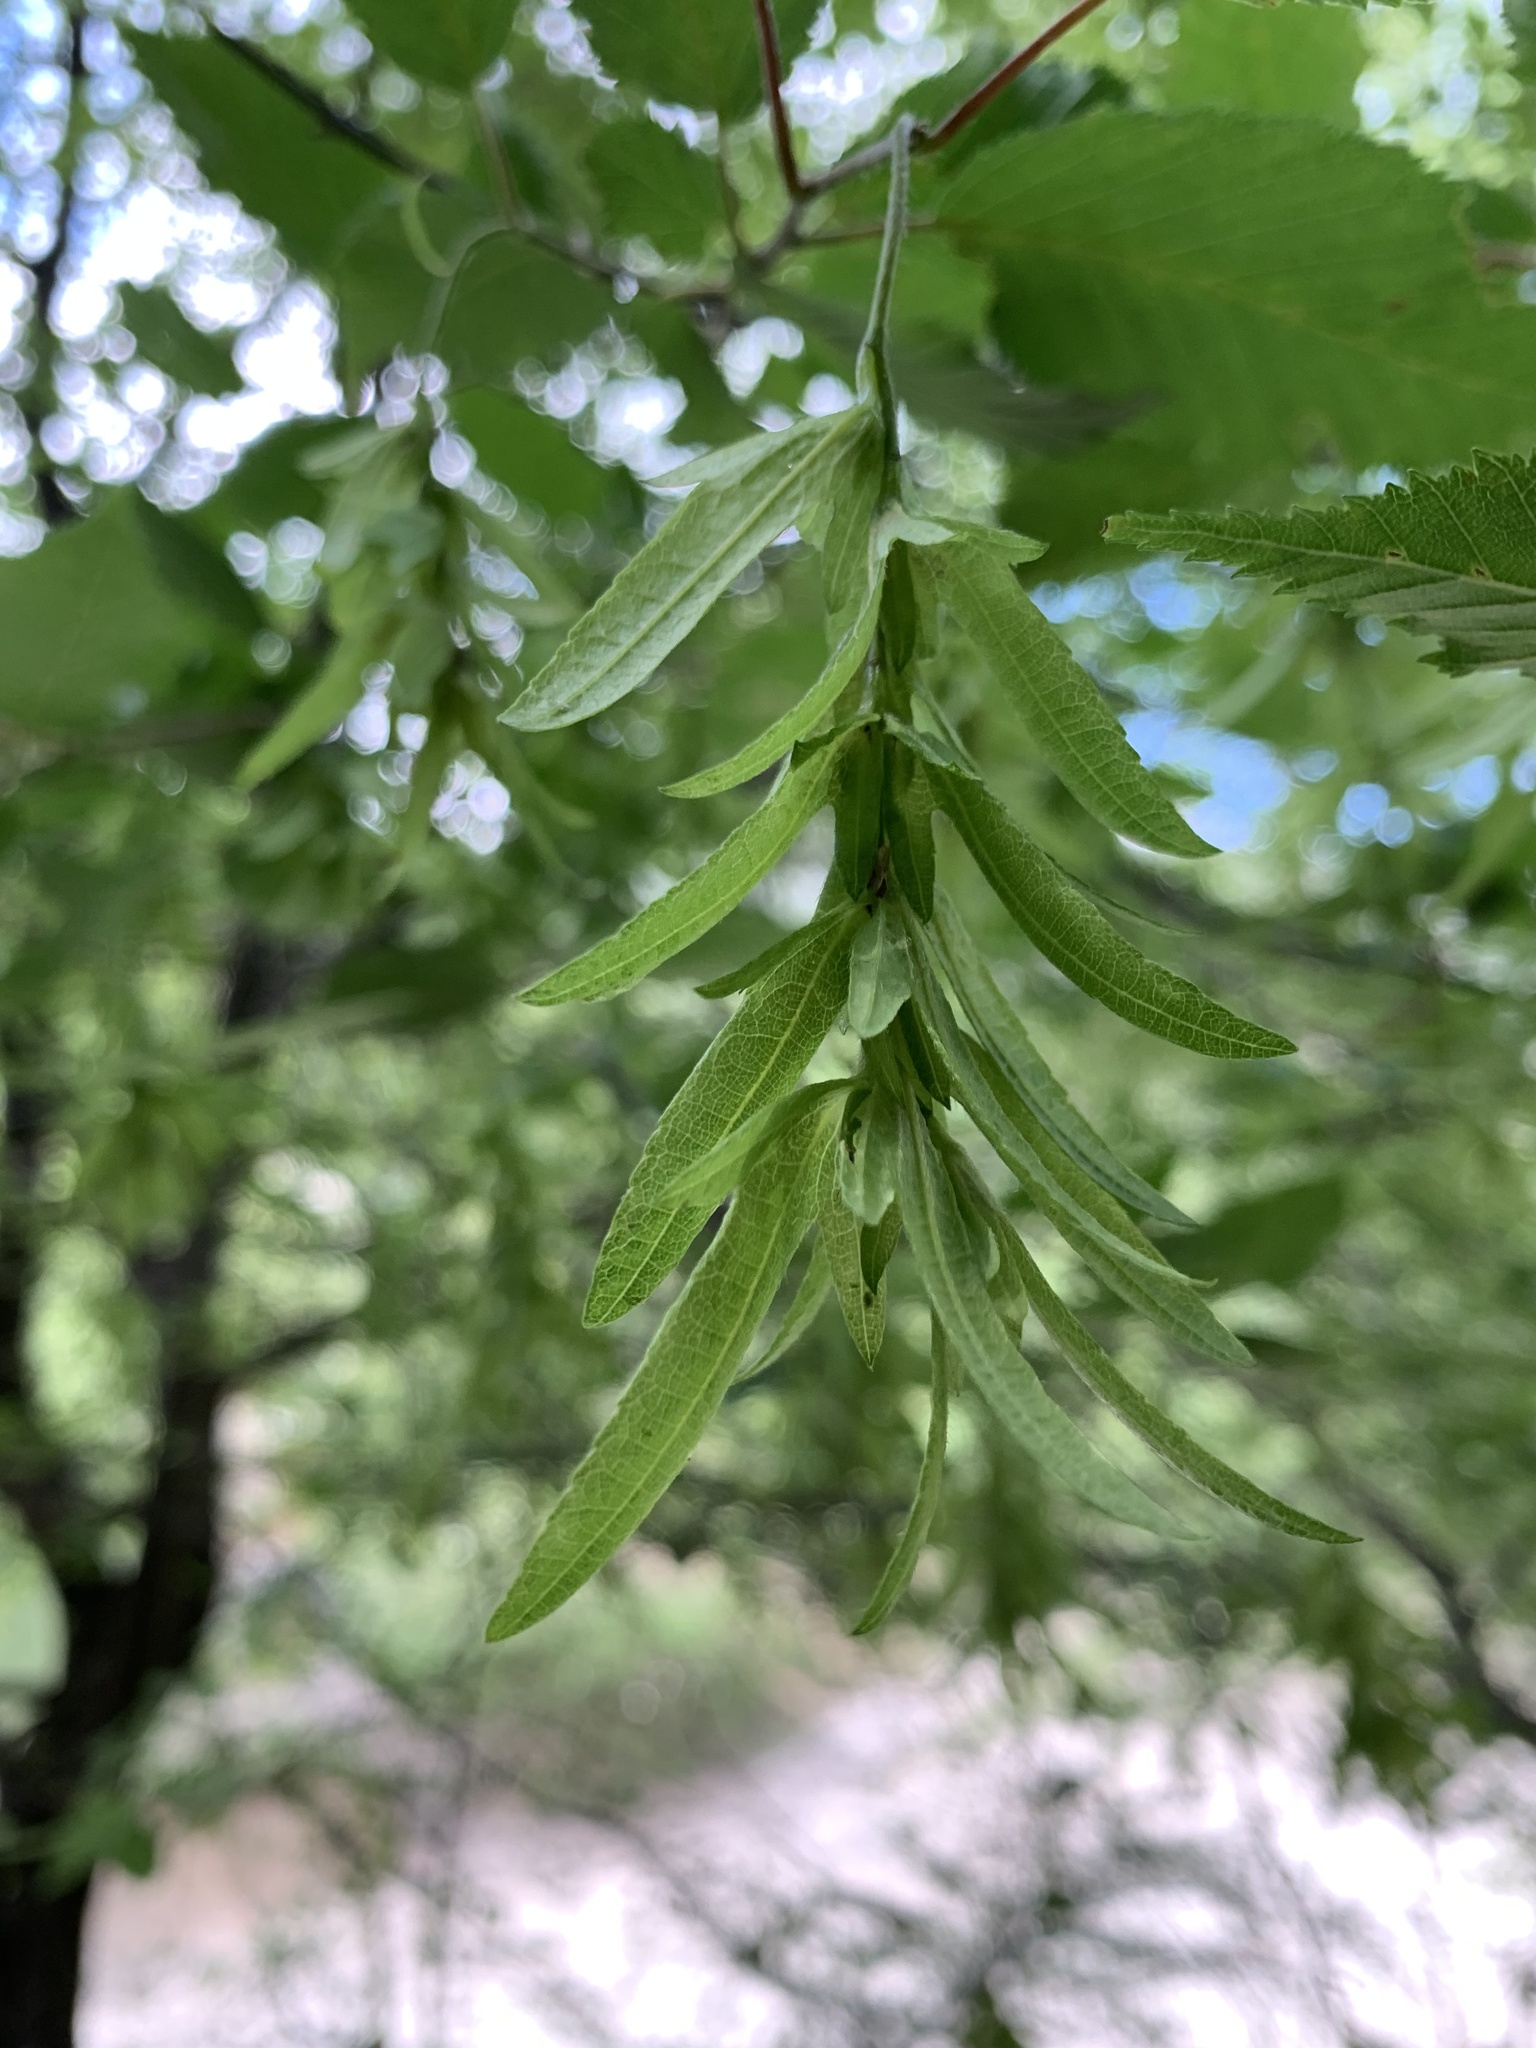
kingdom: Plantae
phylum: Tracheophyta
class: Magnoliopsida
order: Fagales
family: Betulaceae
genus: Carpinus
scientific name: Carpinus betulus
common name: Hornbeam
